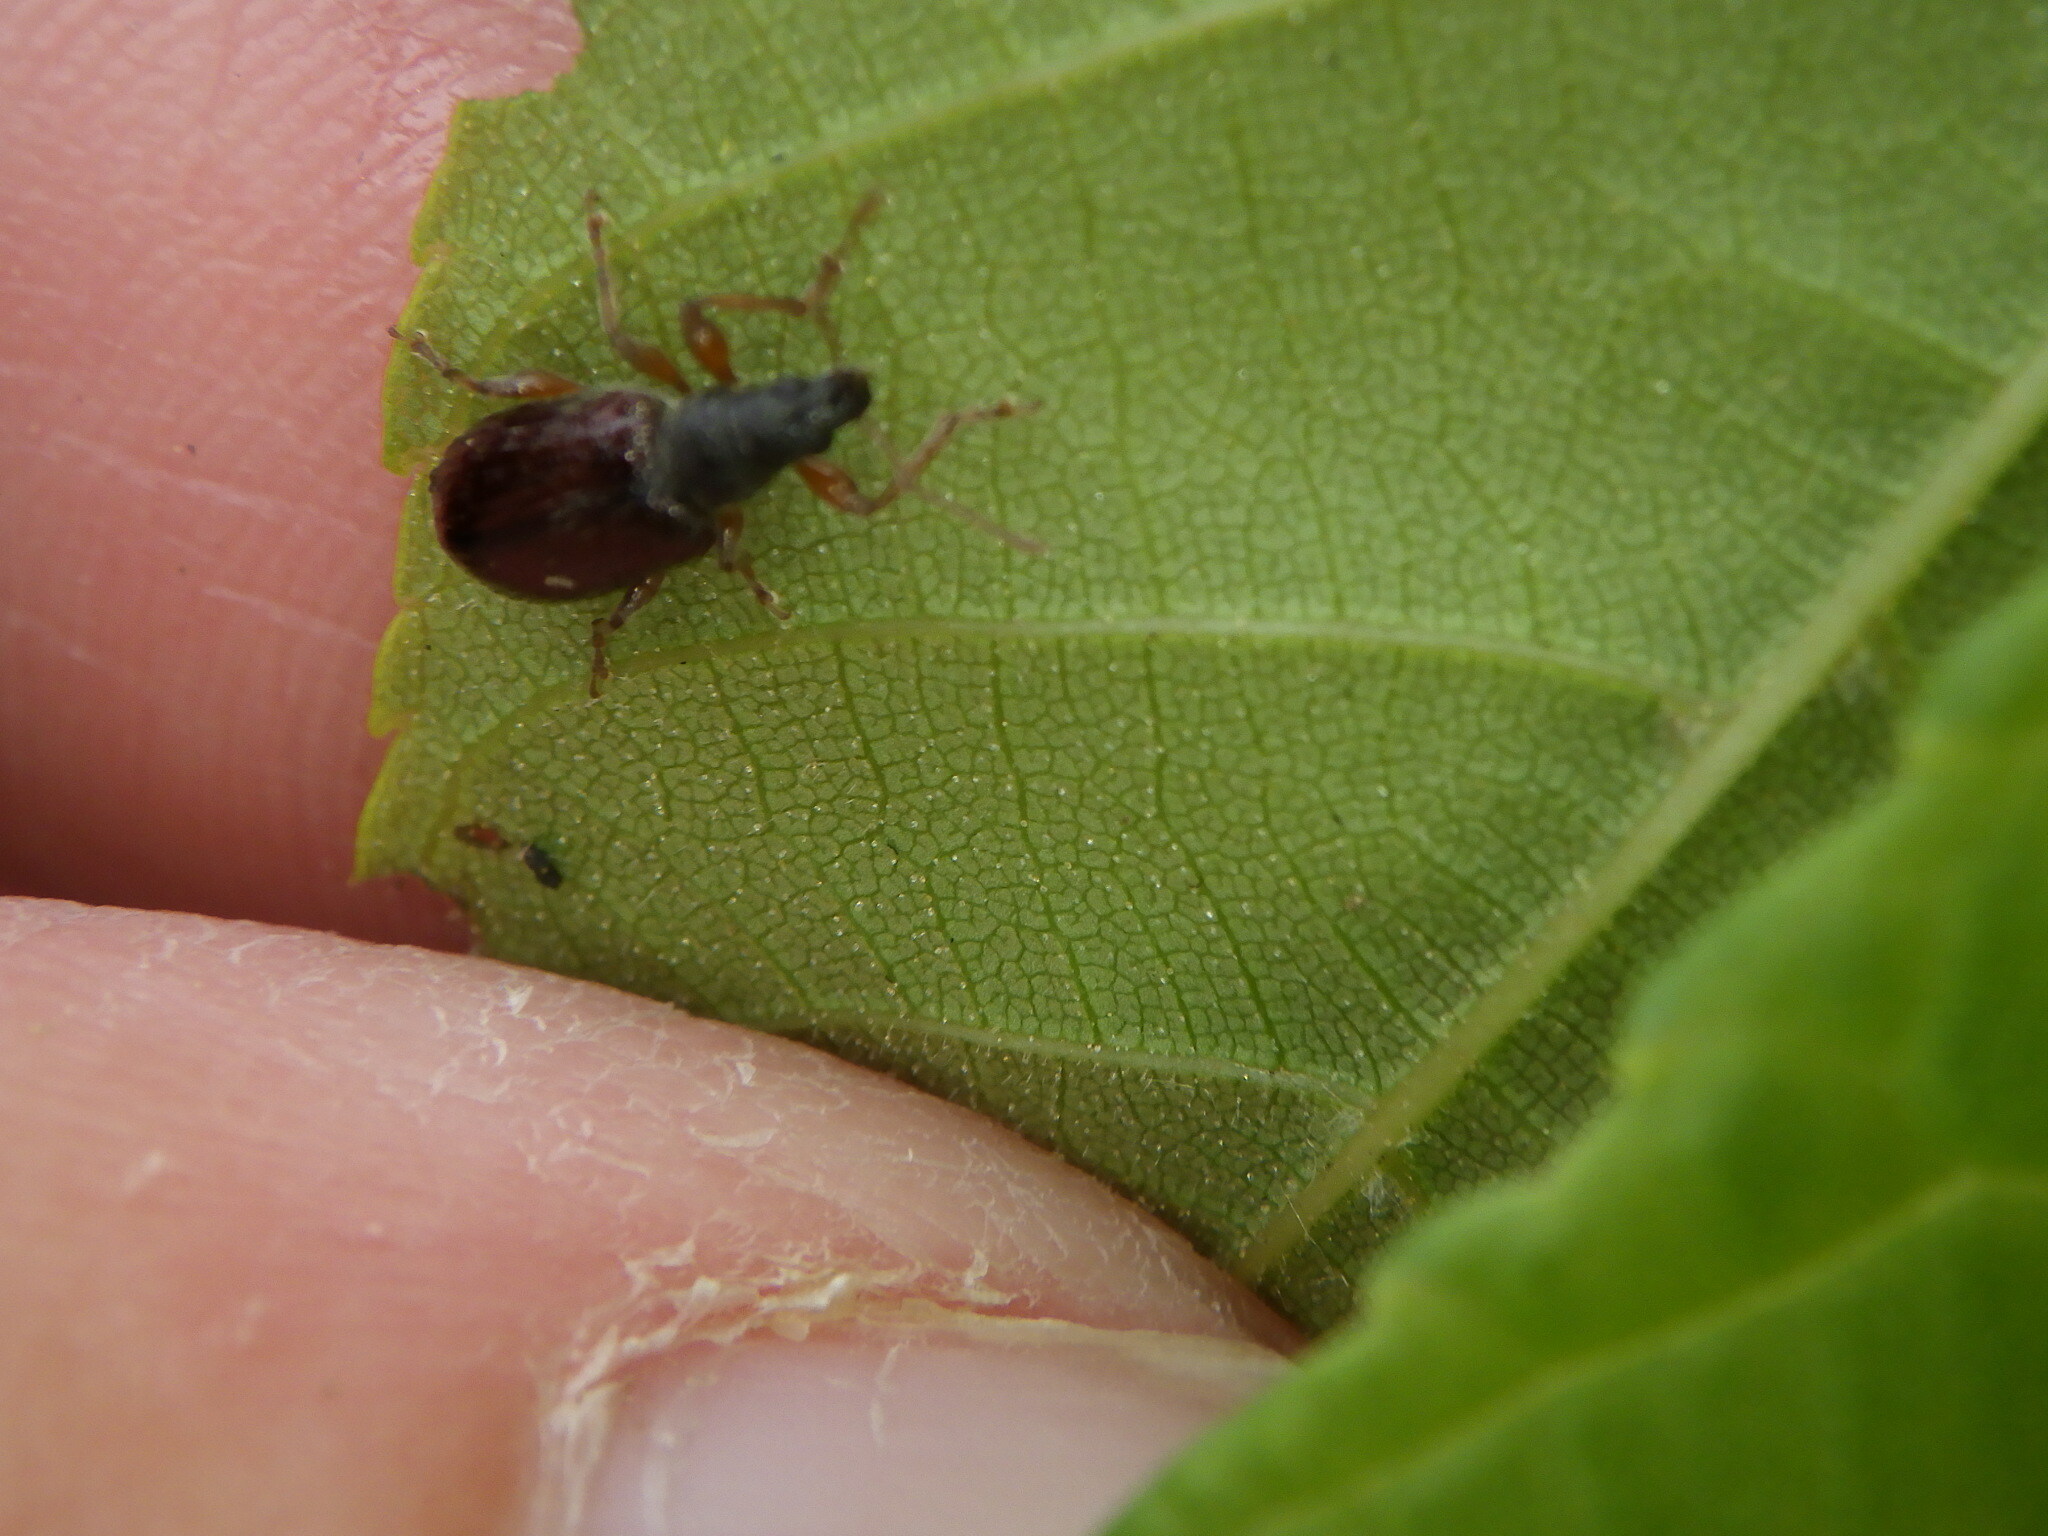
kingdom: Animalia
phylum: Arthropoda
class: Insecta
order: Coleoptera
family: Curculionidae
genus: Phyllobius
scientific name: Phyllobius oblongus
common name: Brown leaf weevil
